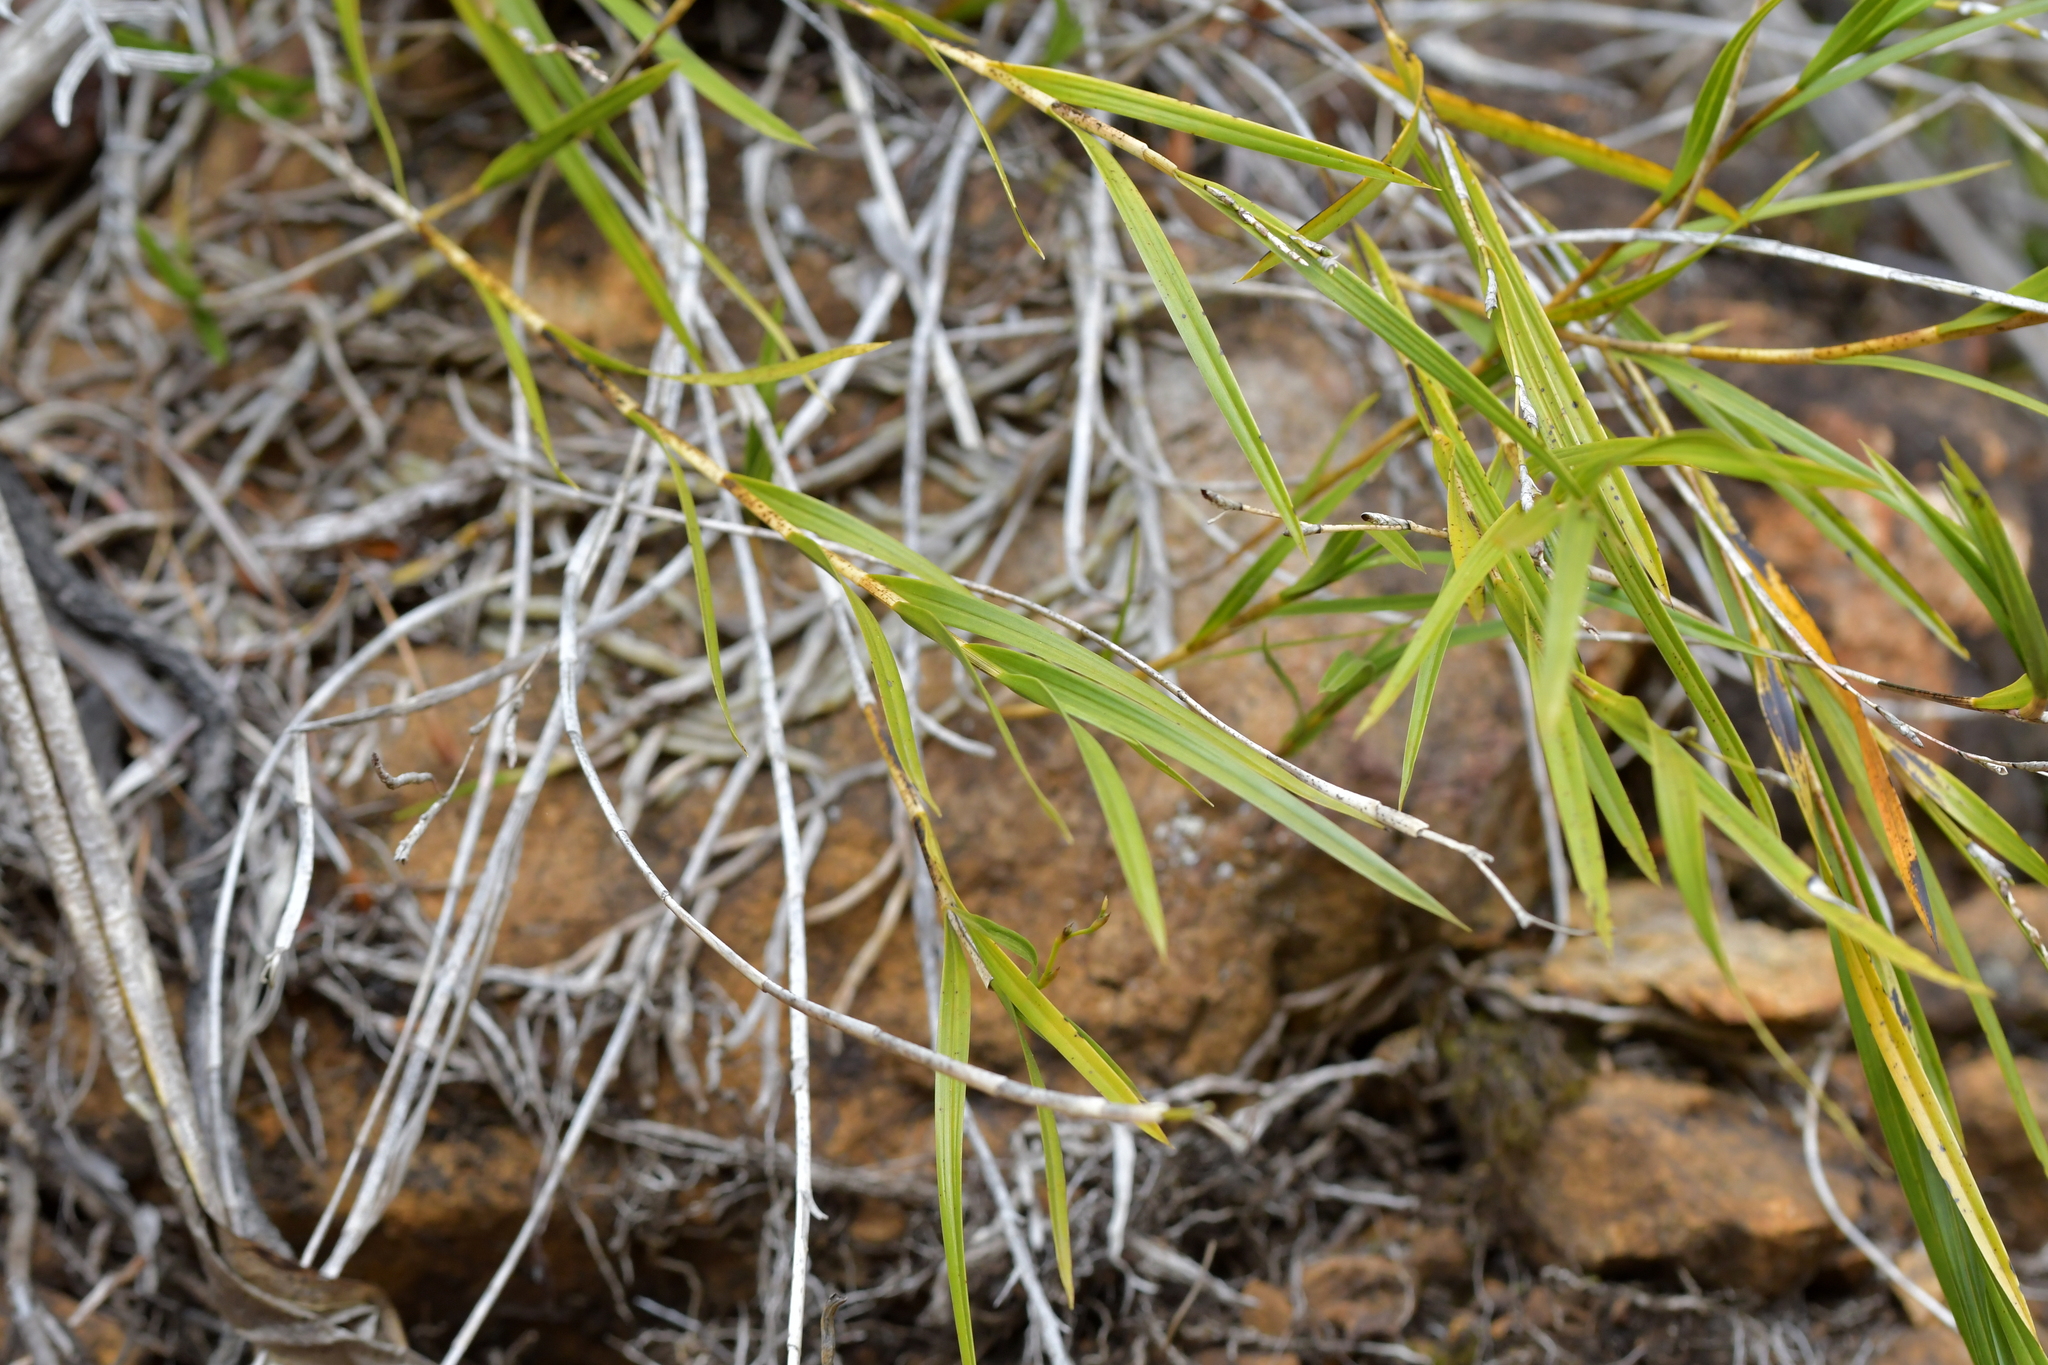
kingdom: Plantae
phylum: Tracheophyta
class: Liliopsida
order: Asparagales
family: Orchidaceae
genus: Earina
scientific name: Earina mucronata
